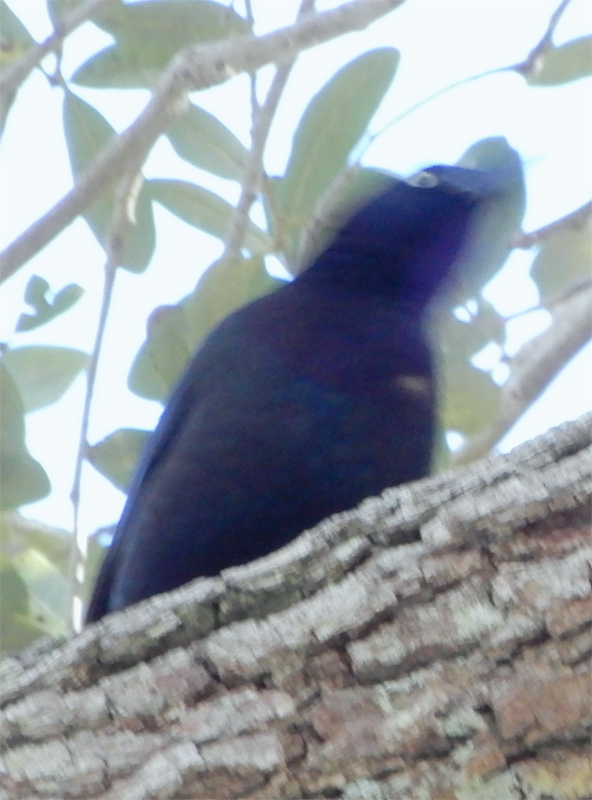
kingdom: Animalia
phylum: Chordata
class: Aves
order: Passeriformes
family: Icteridae
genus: Quiscalus
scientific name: Quiscalus quiscula
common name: Common grackle
